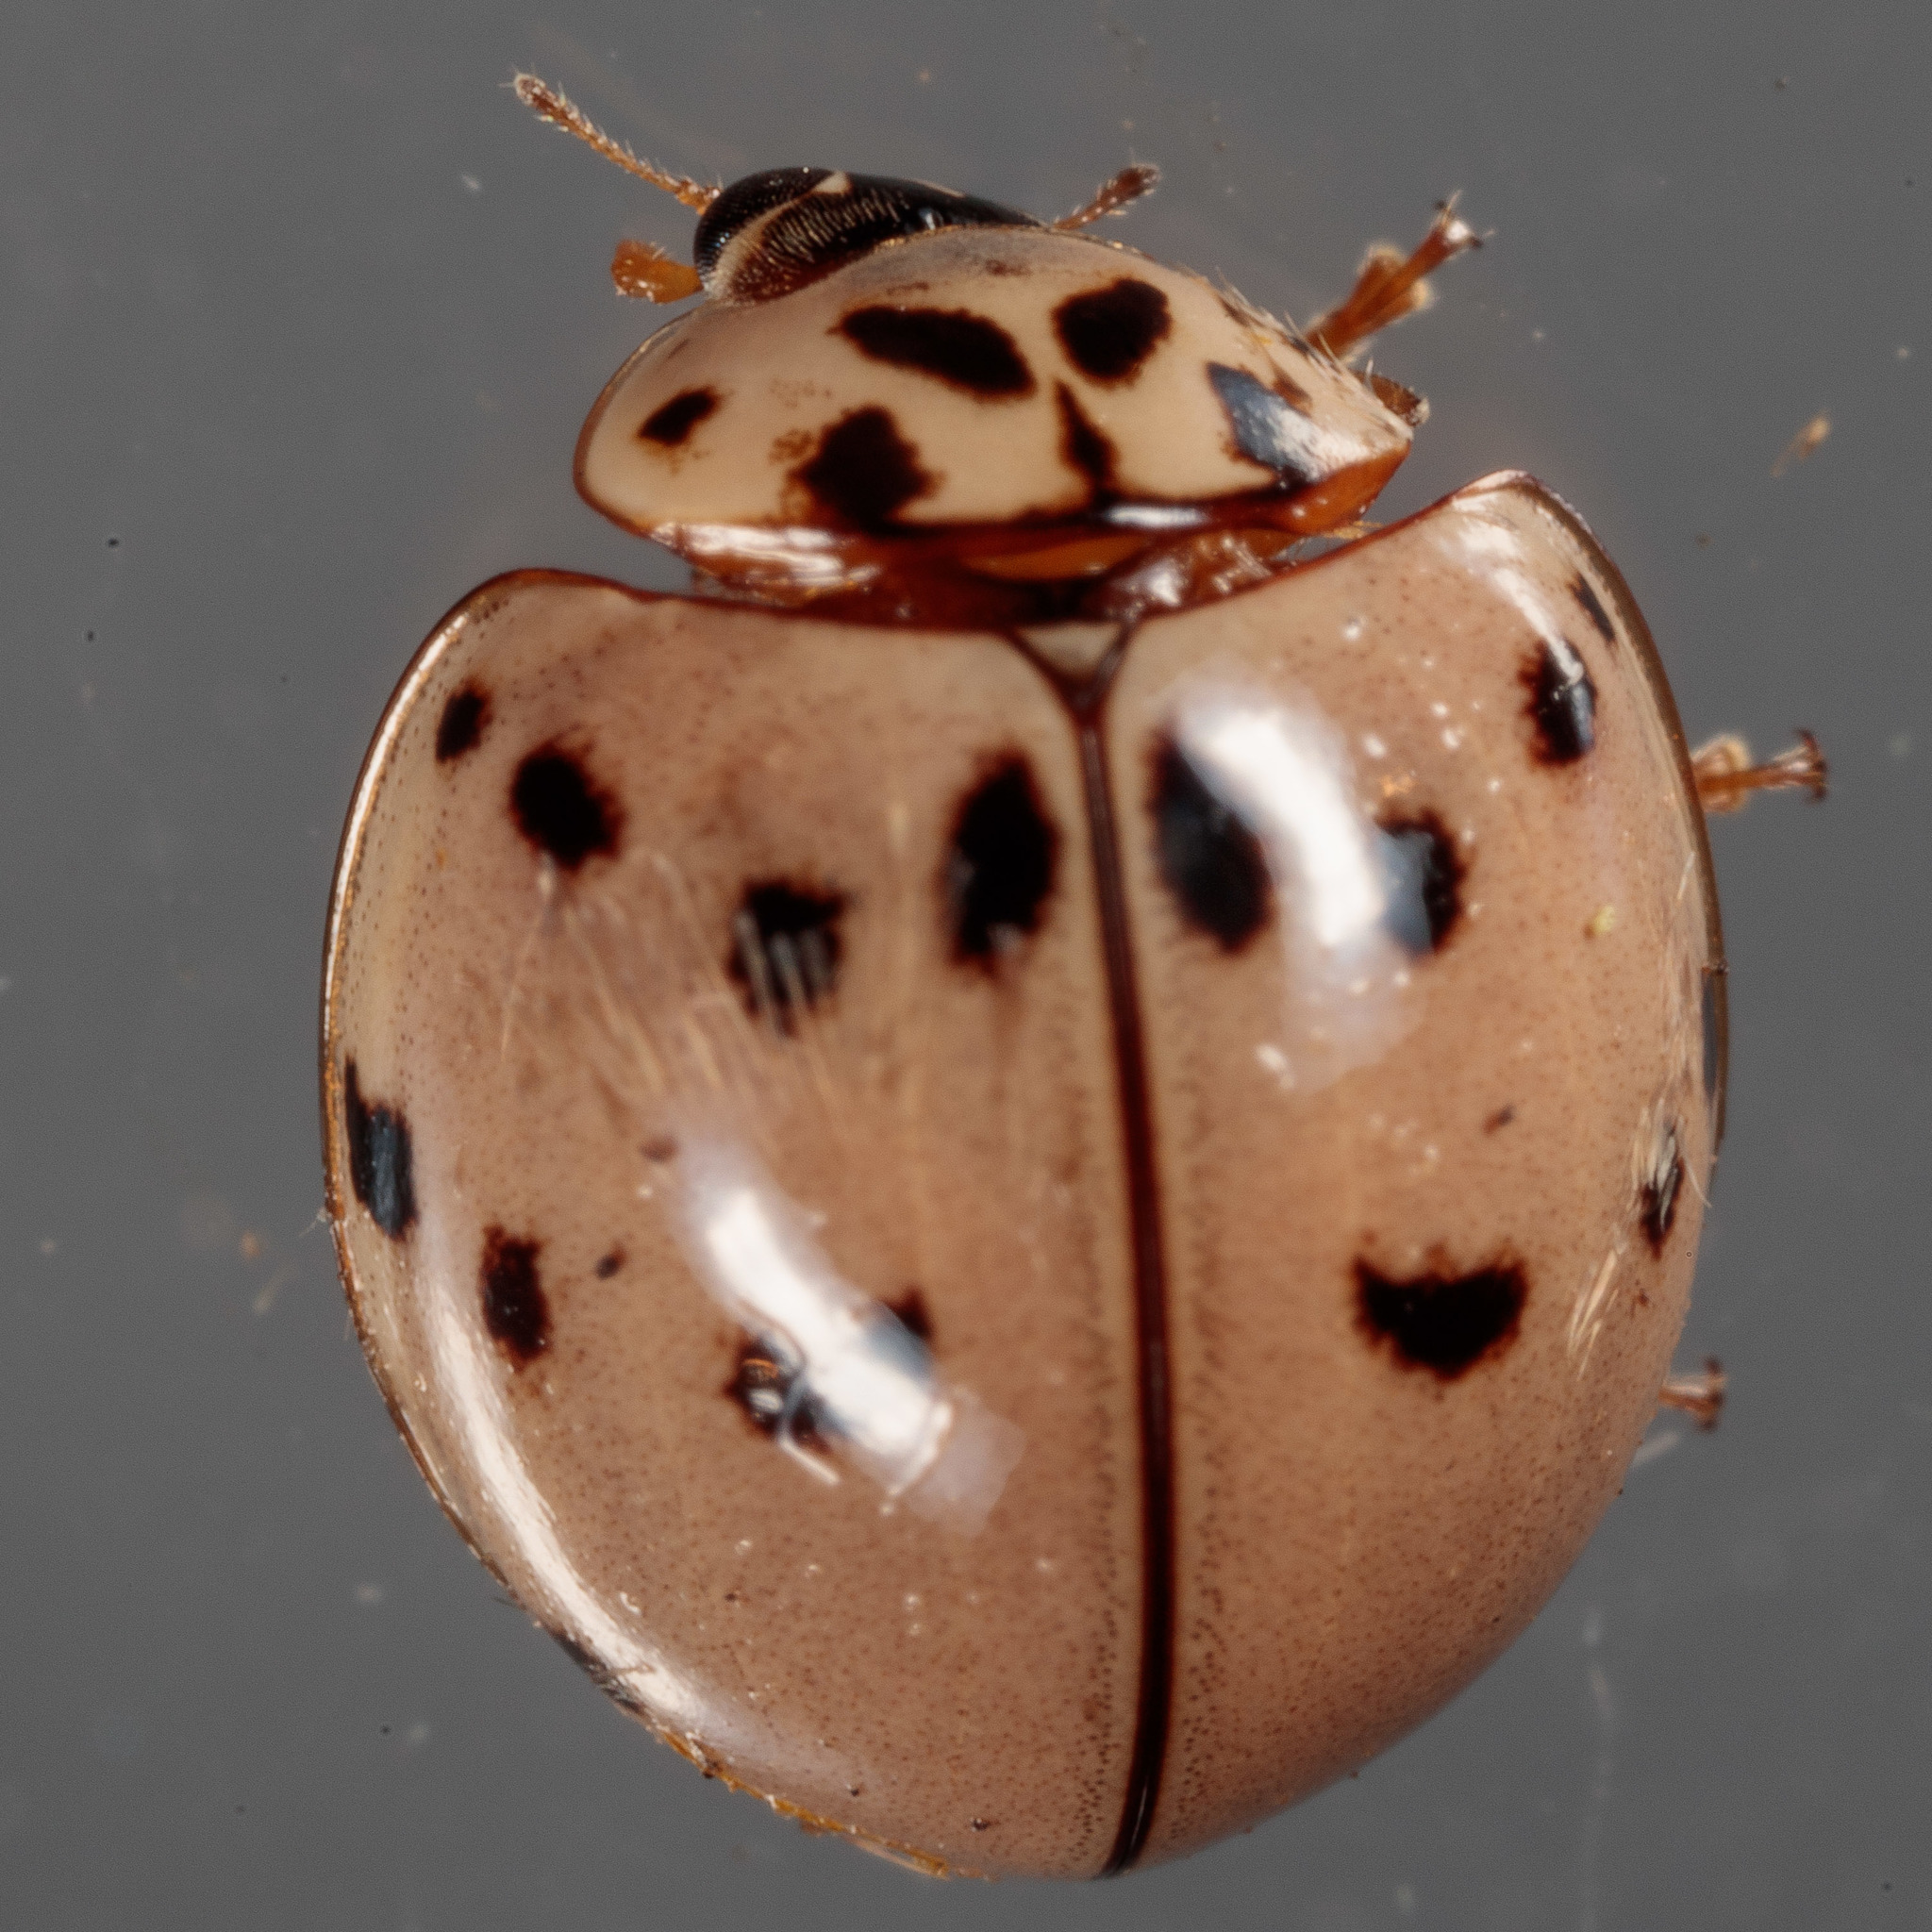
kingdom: Animalia
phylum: Arthropoda
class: Insecta
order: Coleoptera
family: Coccinellidae
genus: Olla
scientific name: Olla v-nigrum
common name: Ashy gray lady beetle
